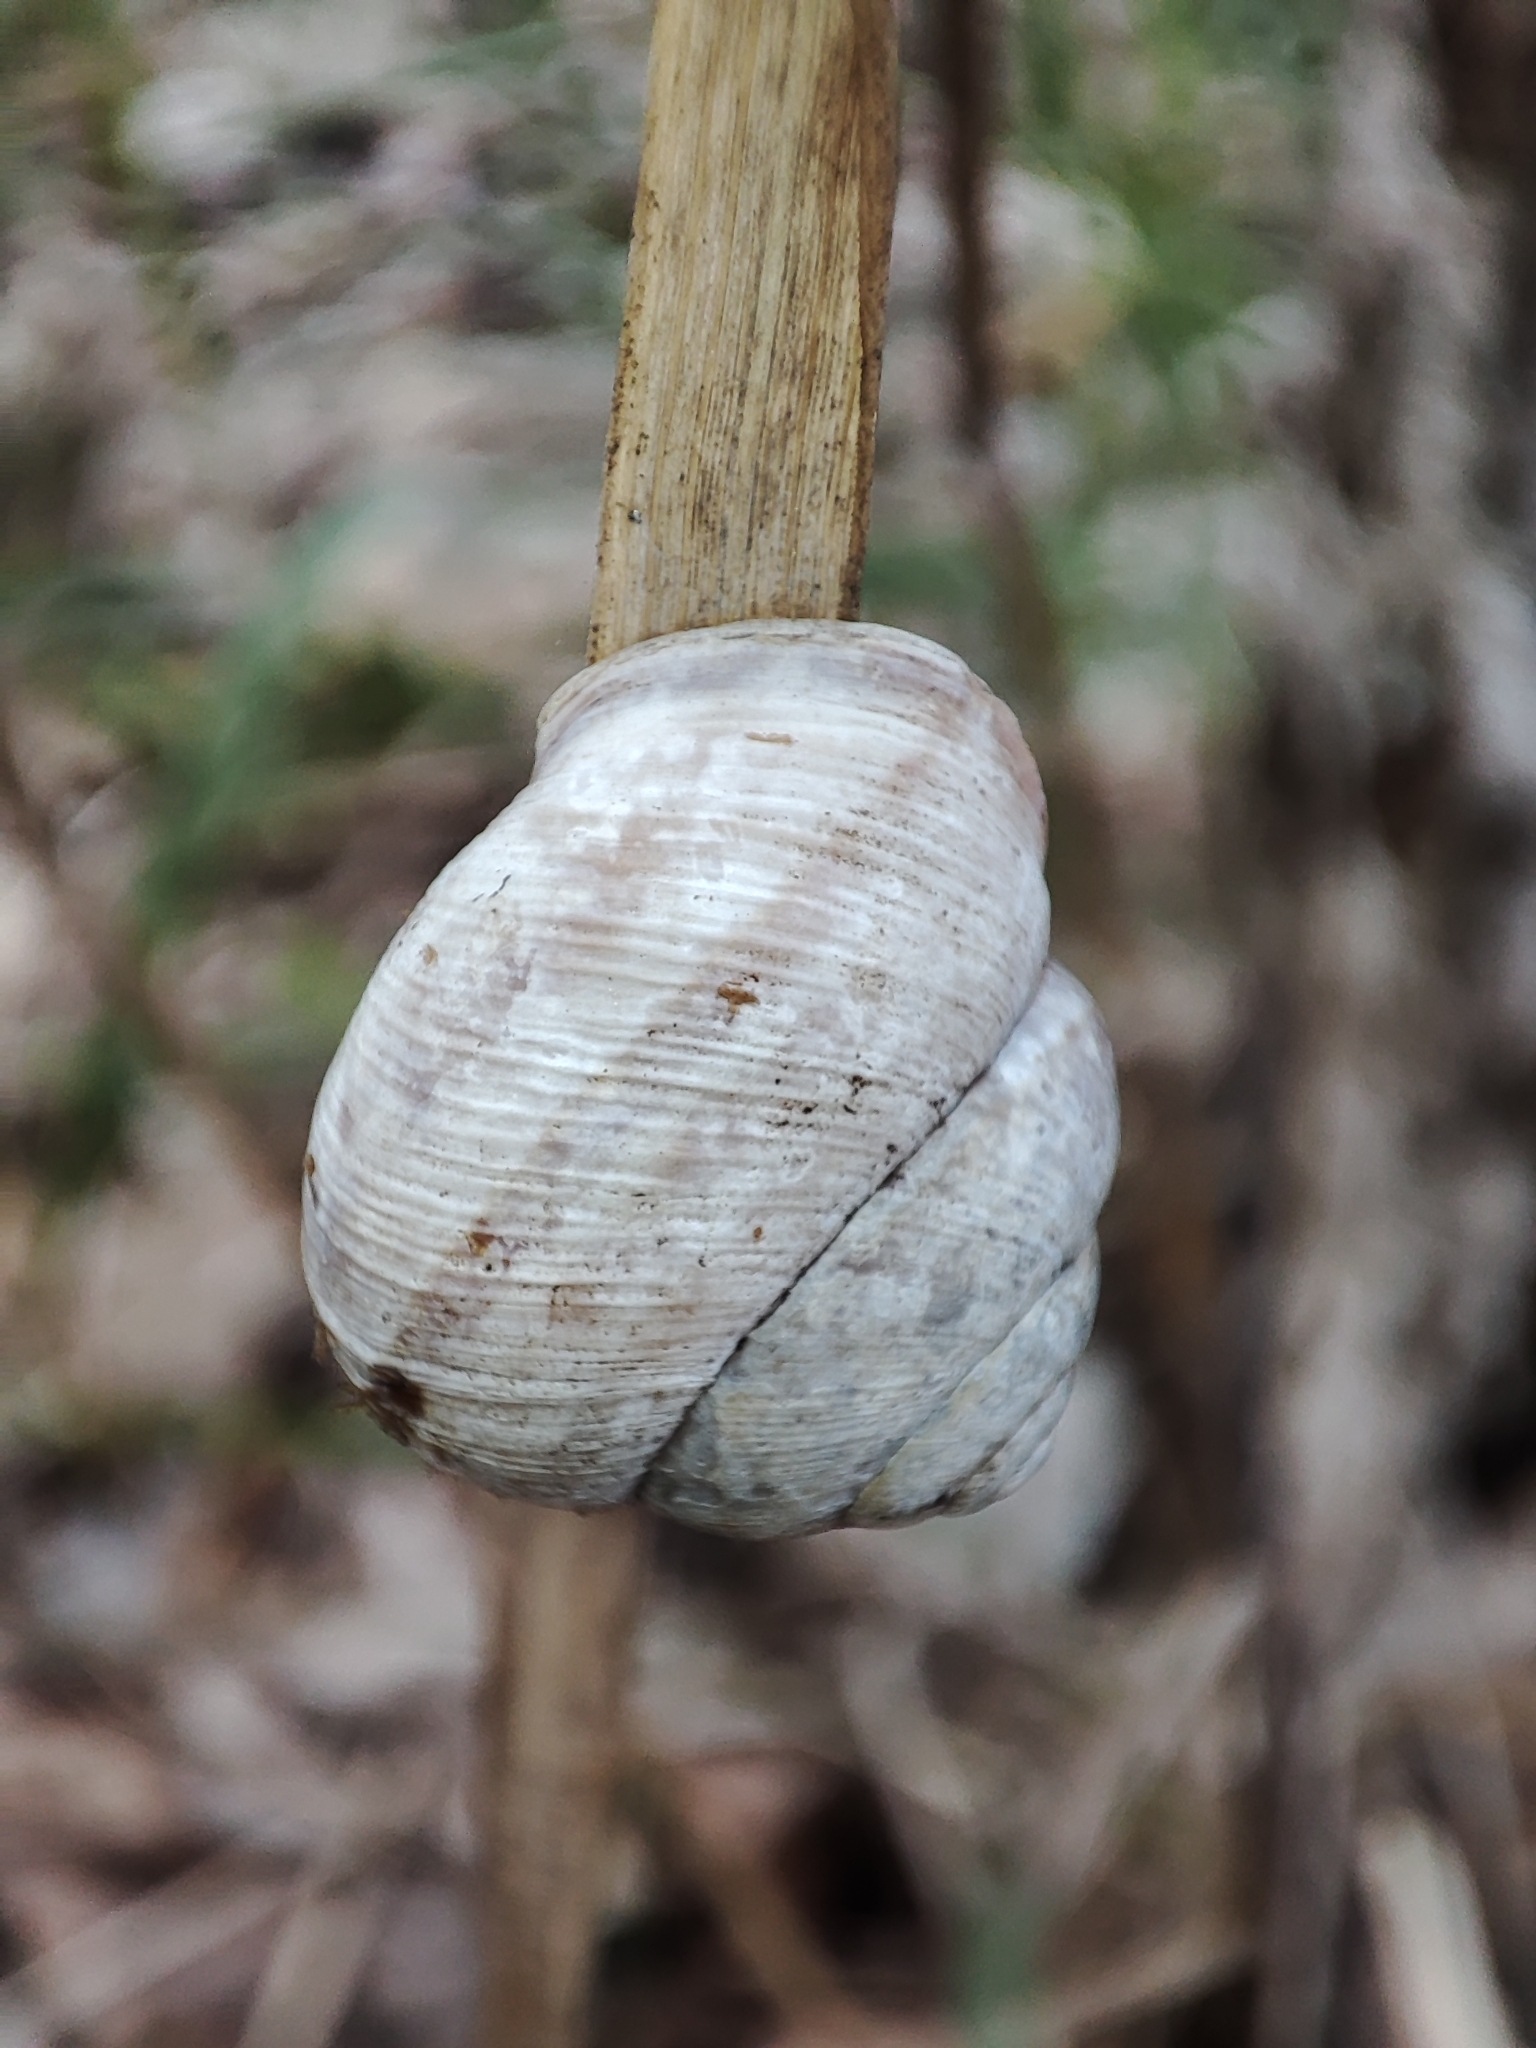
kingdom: Animalia
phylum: Mollusca
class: Gastropoda
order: Stylommatophora
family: Helicidae
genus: Caucasotachea
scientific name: Caucasotachea vindobonensis
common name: European helicid land snail
